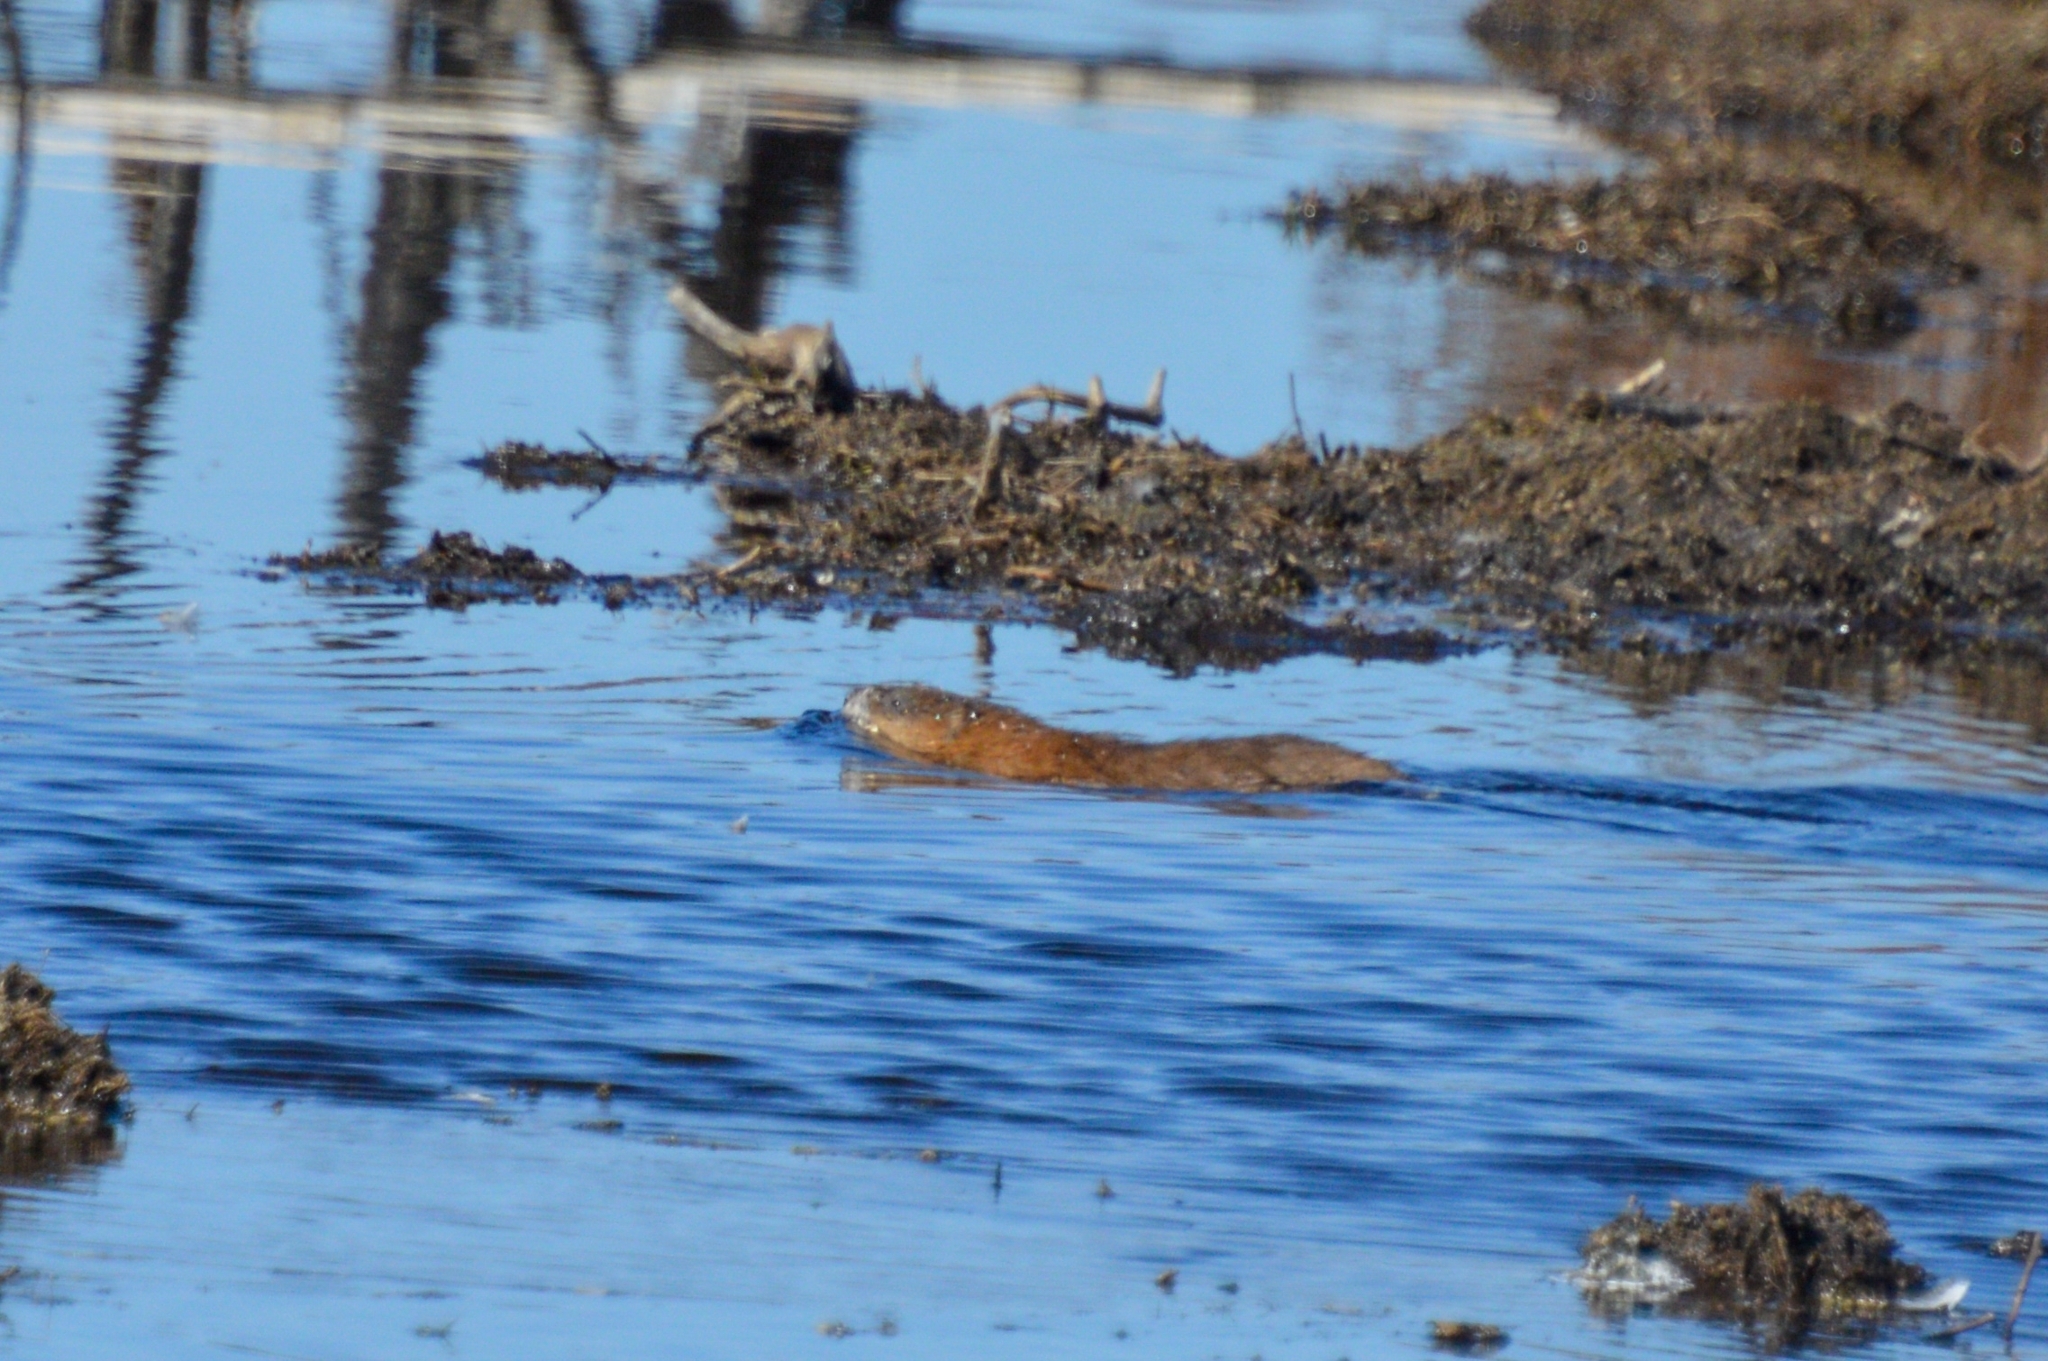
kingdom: Animalia
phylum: Chordata
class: Mammalia
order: Rodentia
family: Cricetidae
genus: Ondatra
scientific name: Ondatra zibethicus
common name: Muskrat
